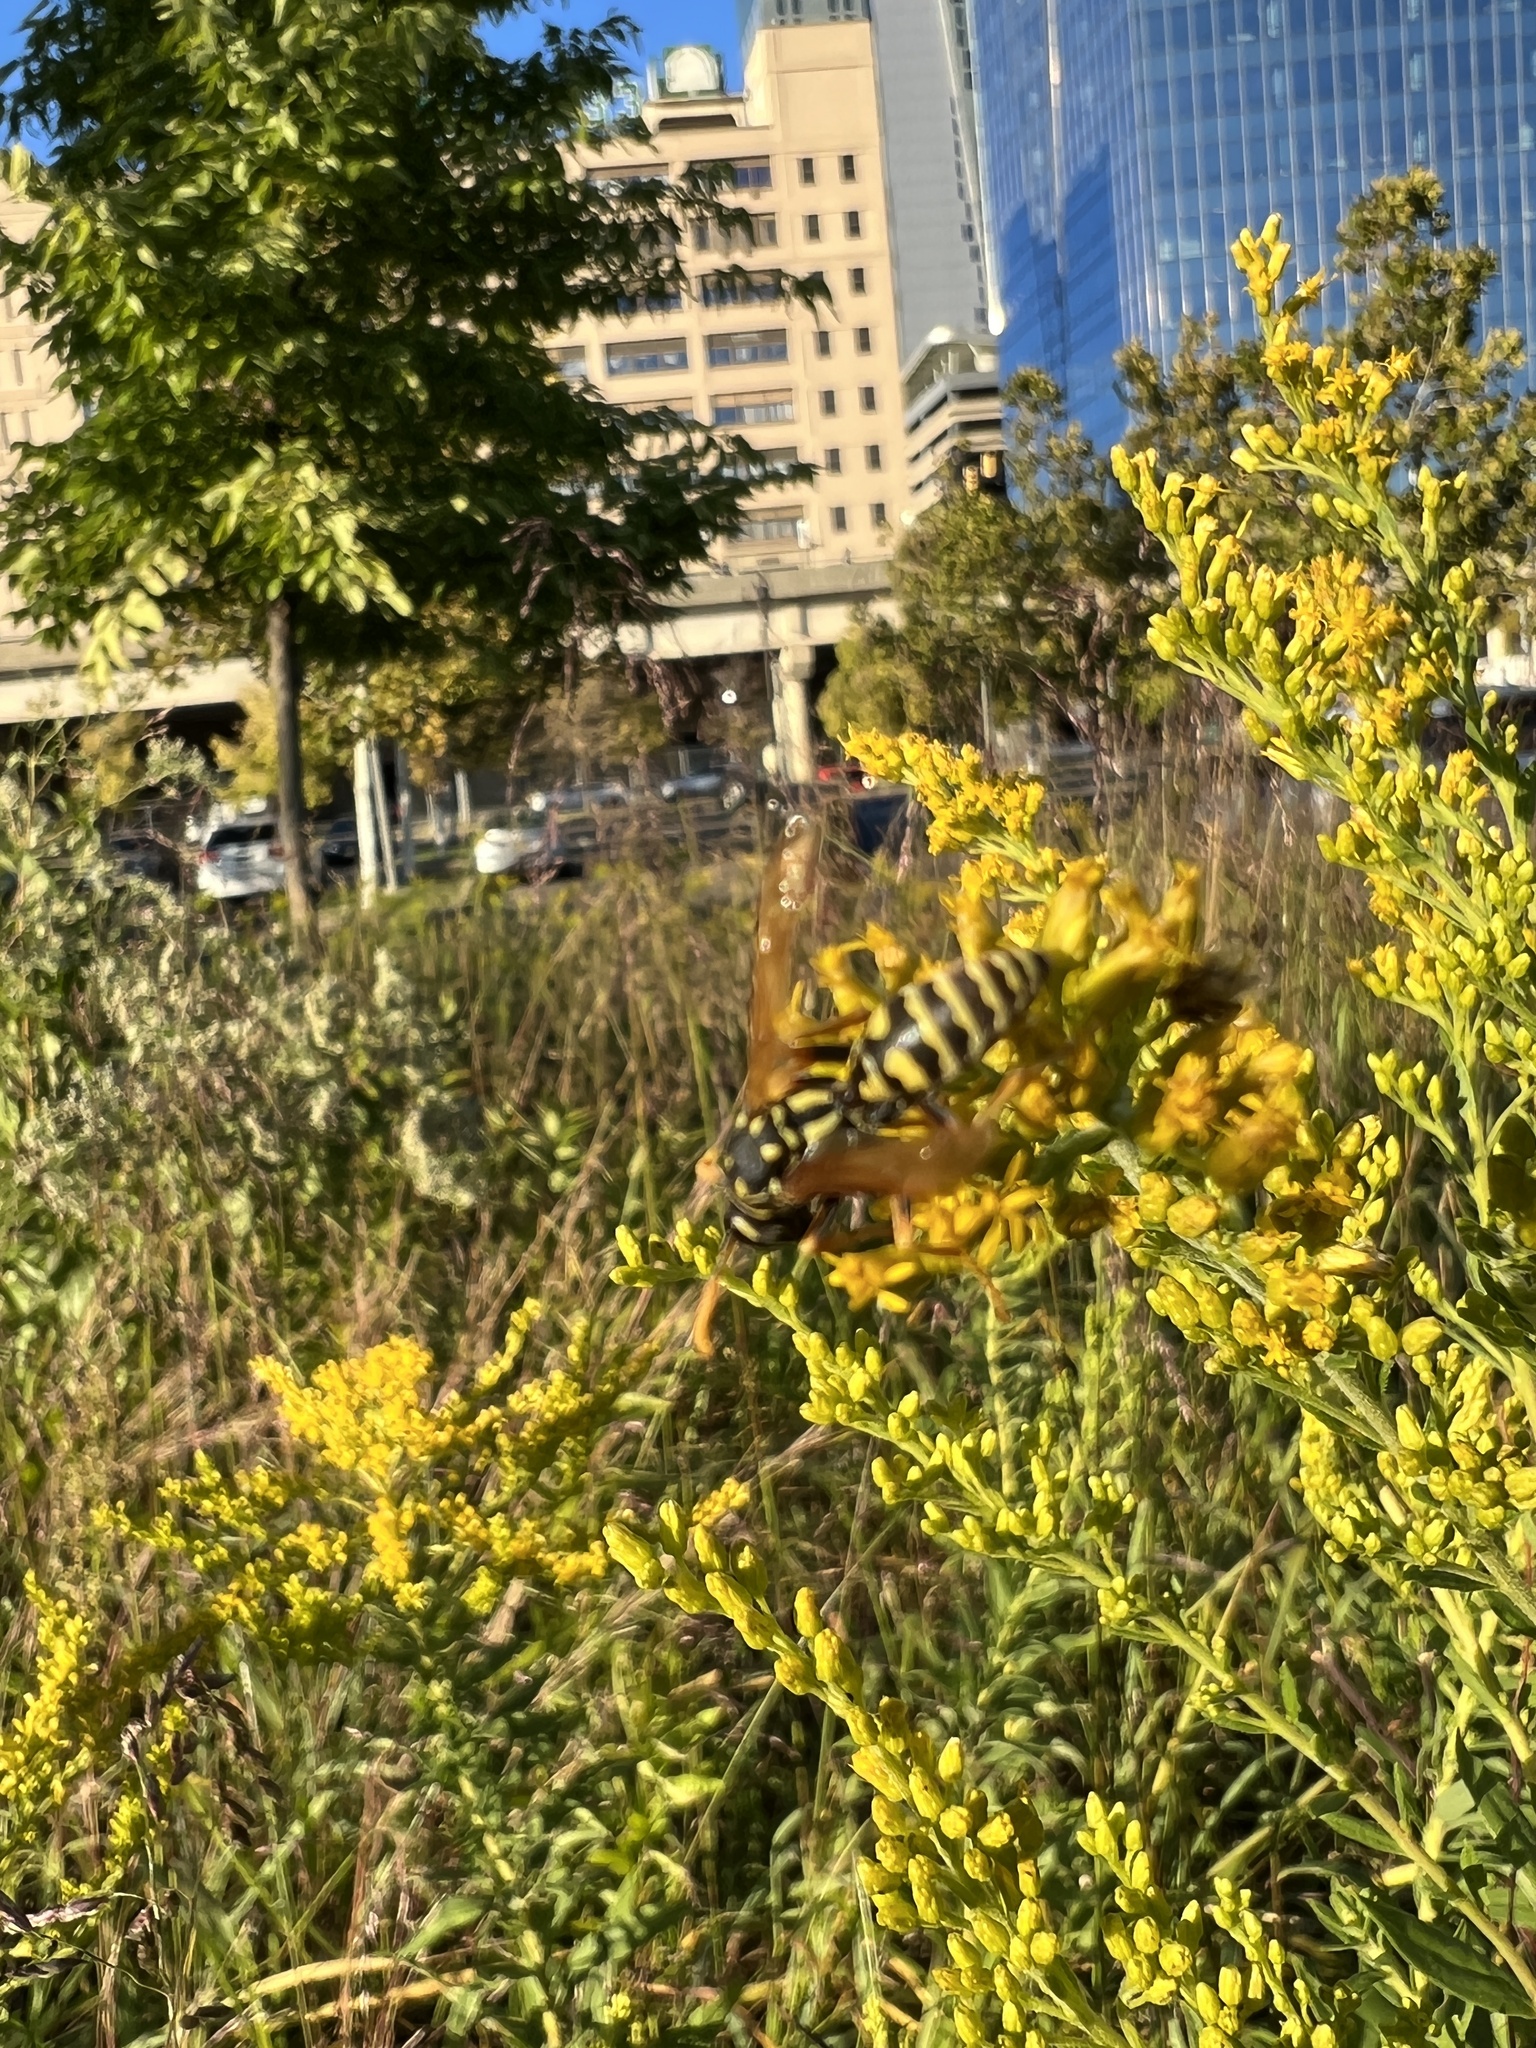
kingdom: Animalia
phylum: Arthropoda
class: Insecta
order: Hymenoptera
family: Eumenidae
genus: Polistes
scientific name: Polistes dominula
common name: Paper wasp
